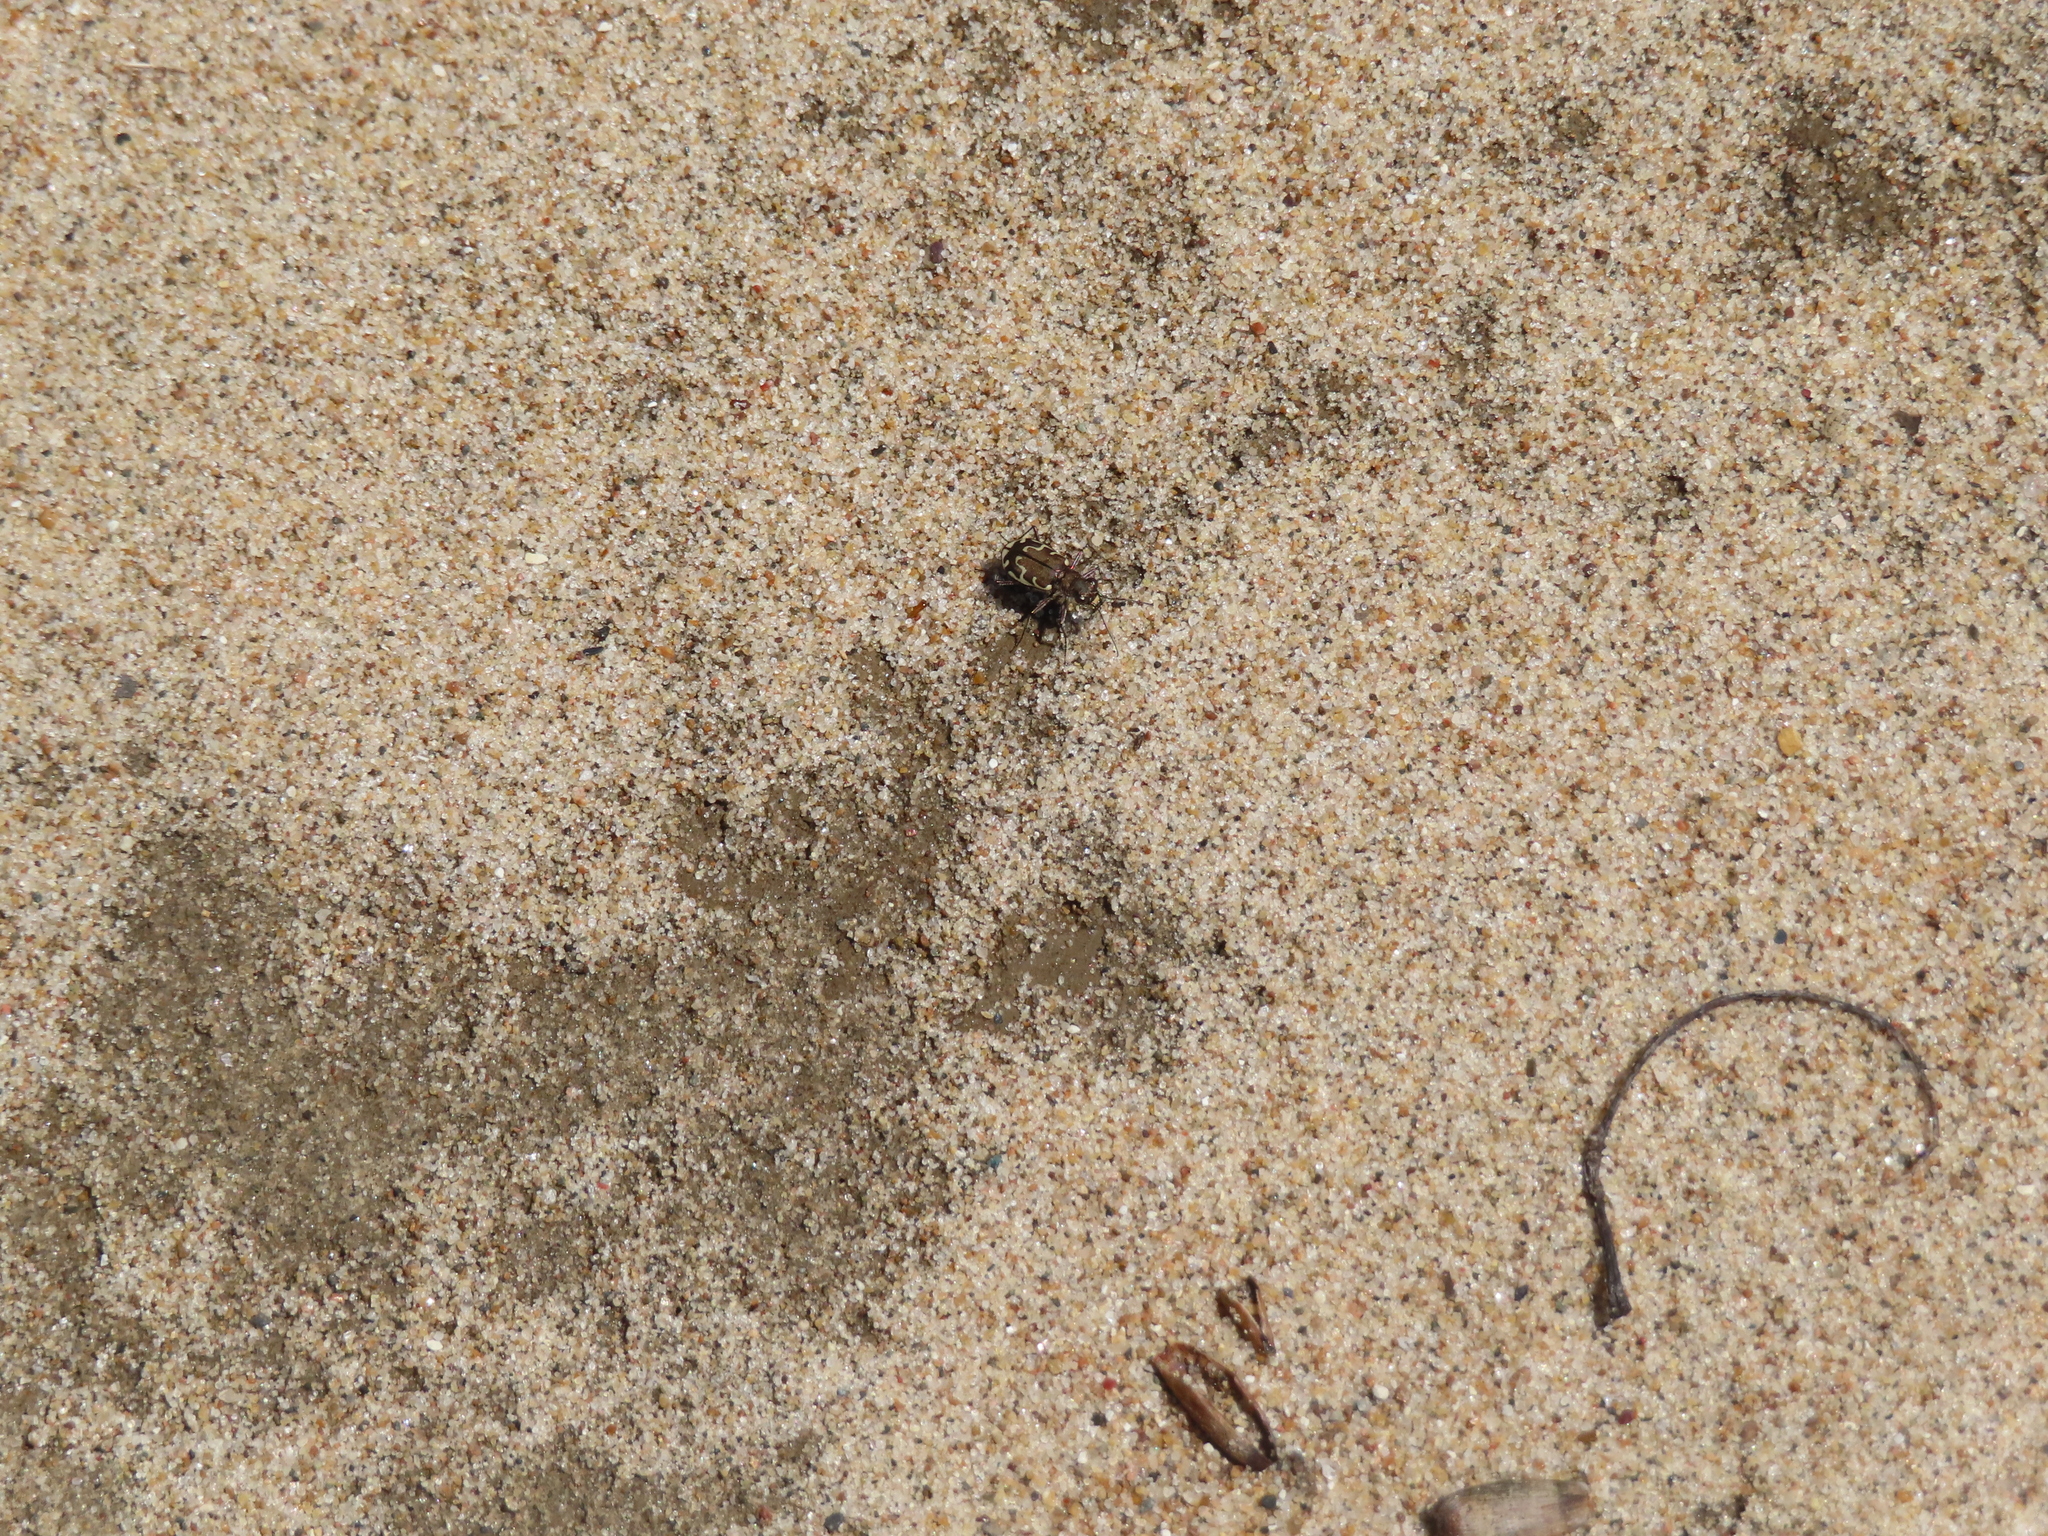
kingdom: Animalia
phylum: Arthropoda
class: Insecta
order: Coleoptera
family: Carabidae
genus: Cicindela
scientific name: Cicindela repanda
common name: Bronzed tiger beetle
